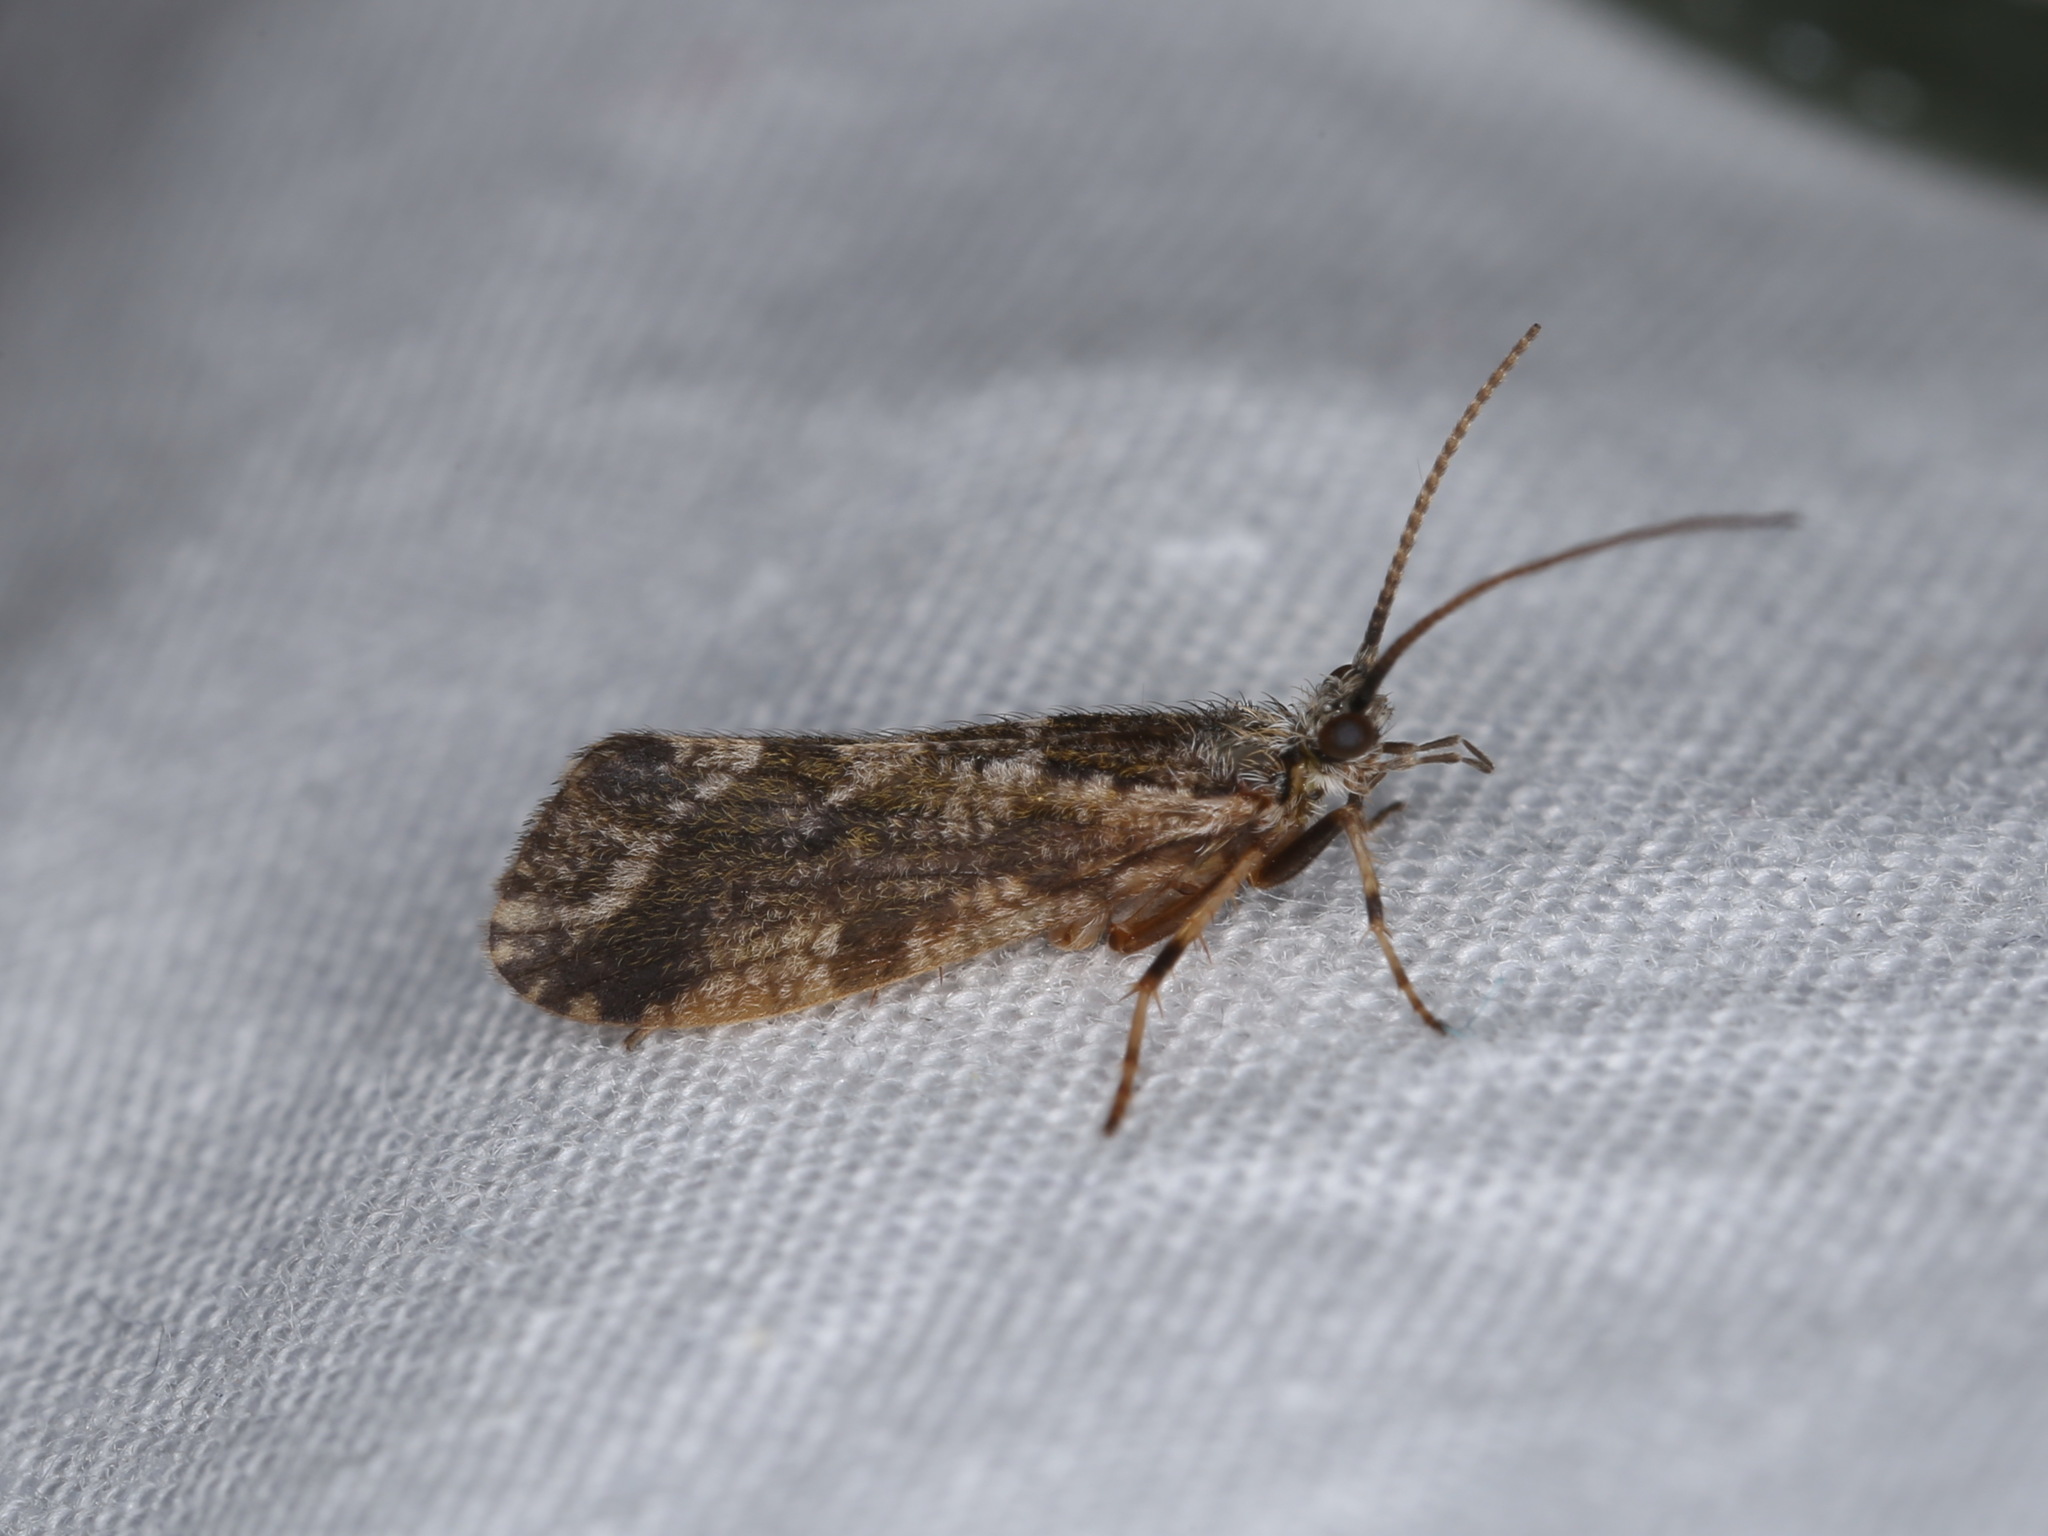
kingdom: Animalia
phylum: Arthropoda
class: Insecta
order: Trichoptera
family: Phryganeidae
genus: Trichostegia
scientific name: Trichostegia minor
